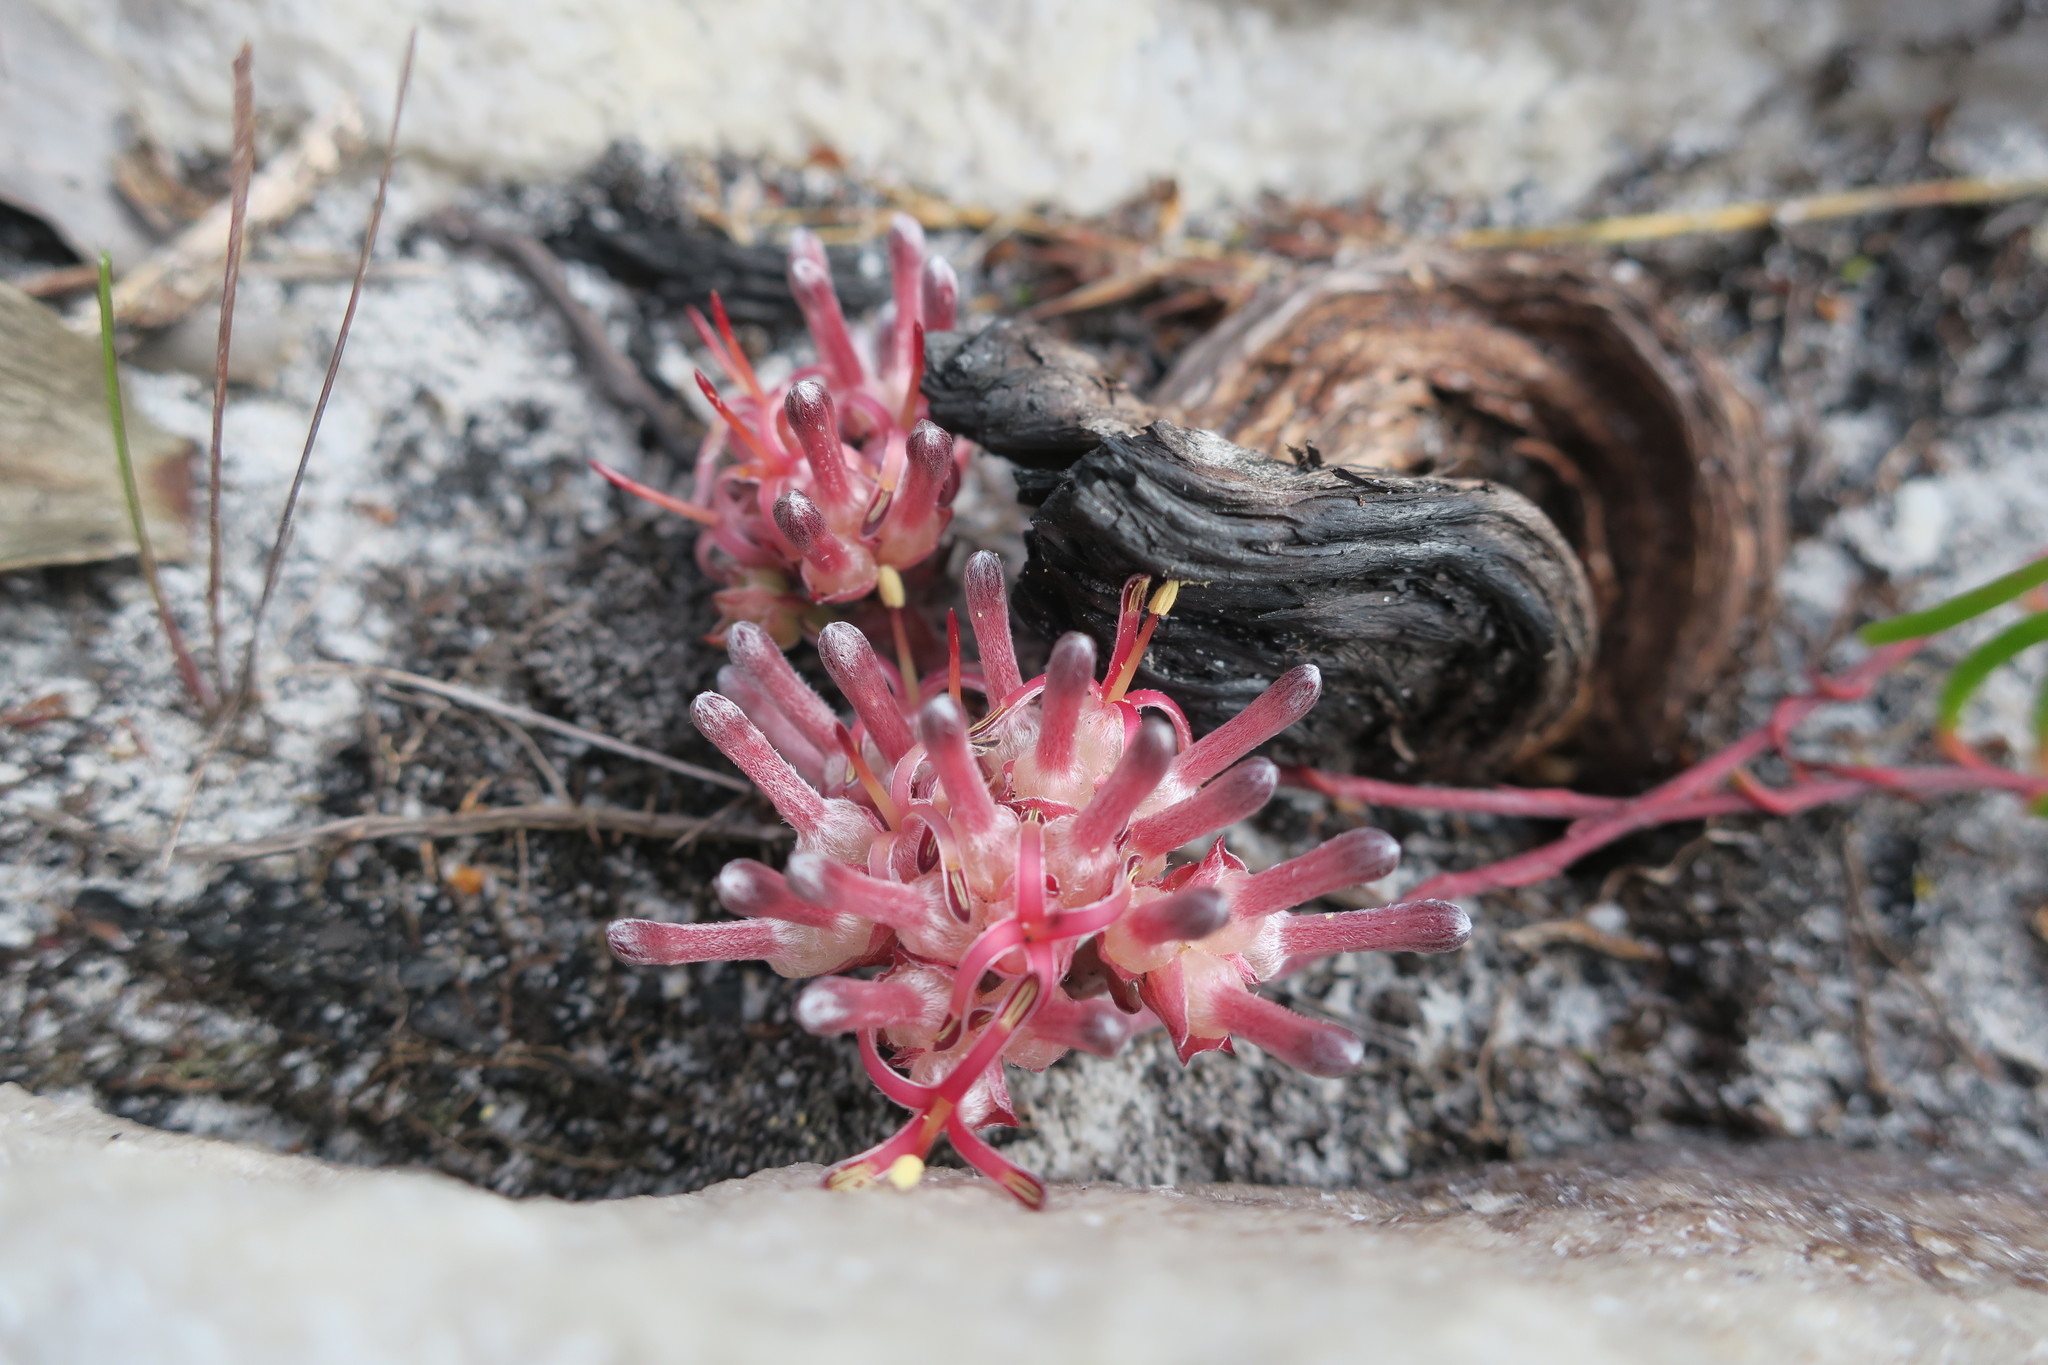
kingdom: Plantae
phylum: Tracheophyta
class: Magnoliopsida
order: Proteales
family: Proteaceae
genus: Serruria
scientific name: Serruria decumbens
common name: Peninsula spiderhead
